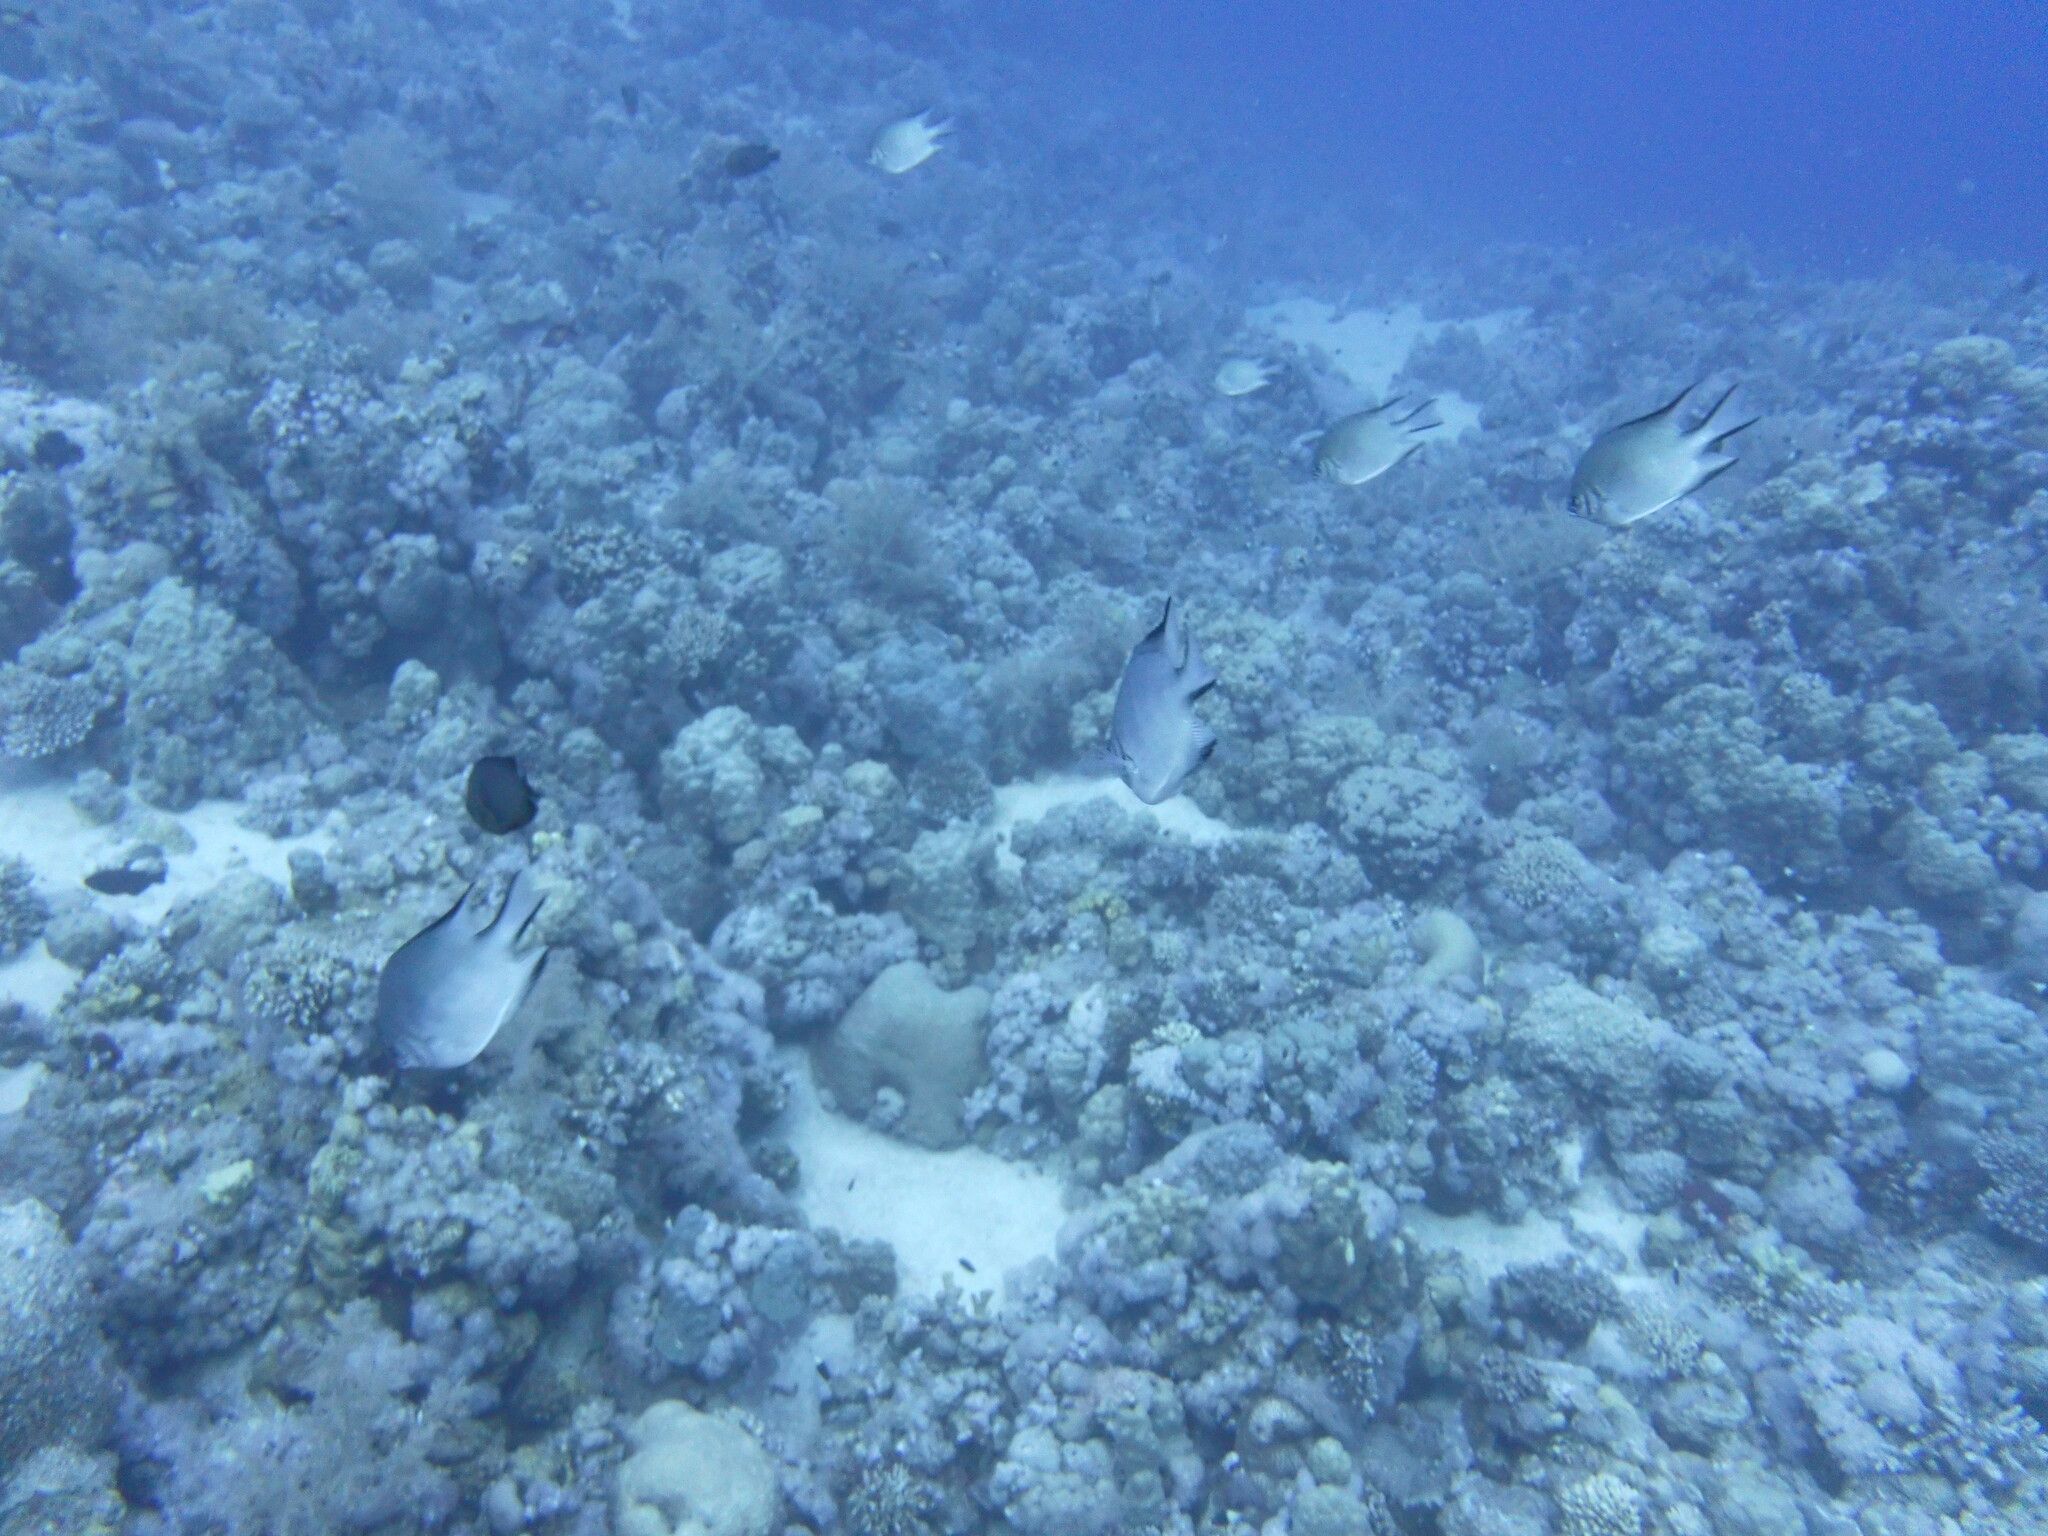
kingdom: Animalia
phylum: Chordata
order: Perciformes
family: Pomacentridae
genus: Amblyglyphidodon
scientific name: Amblyglyphidodon indicus
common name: Maldives damselfish
